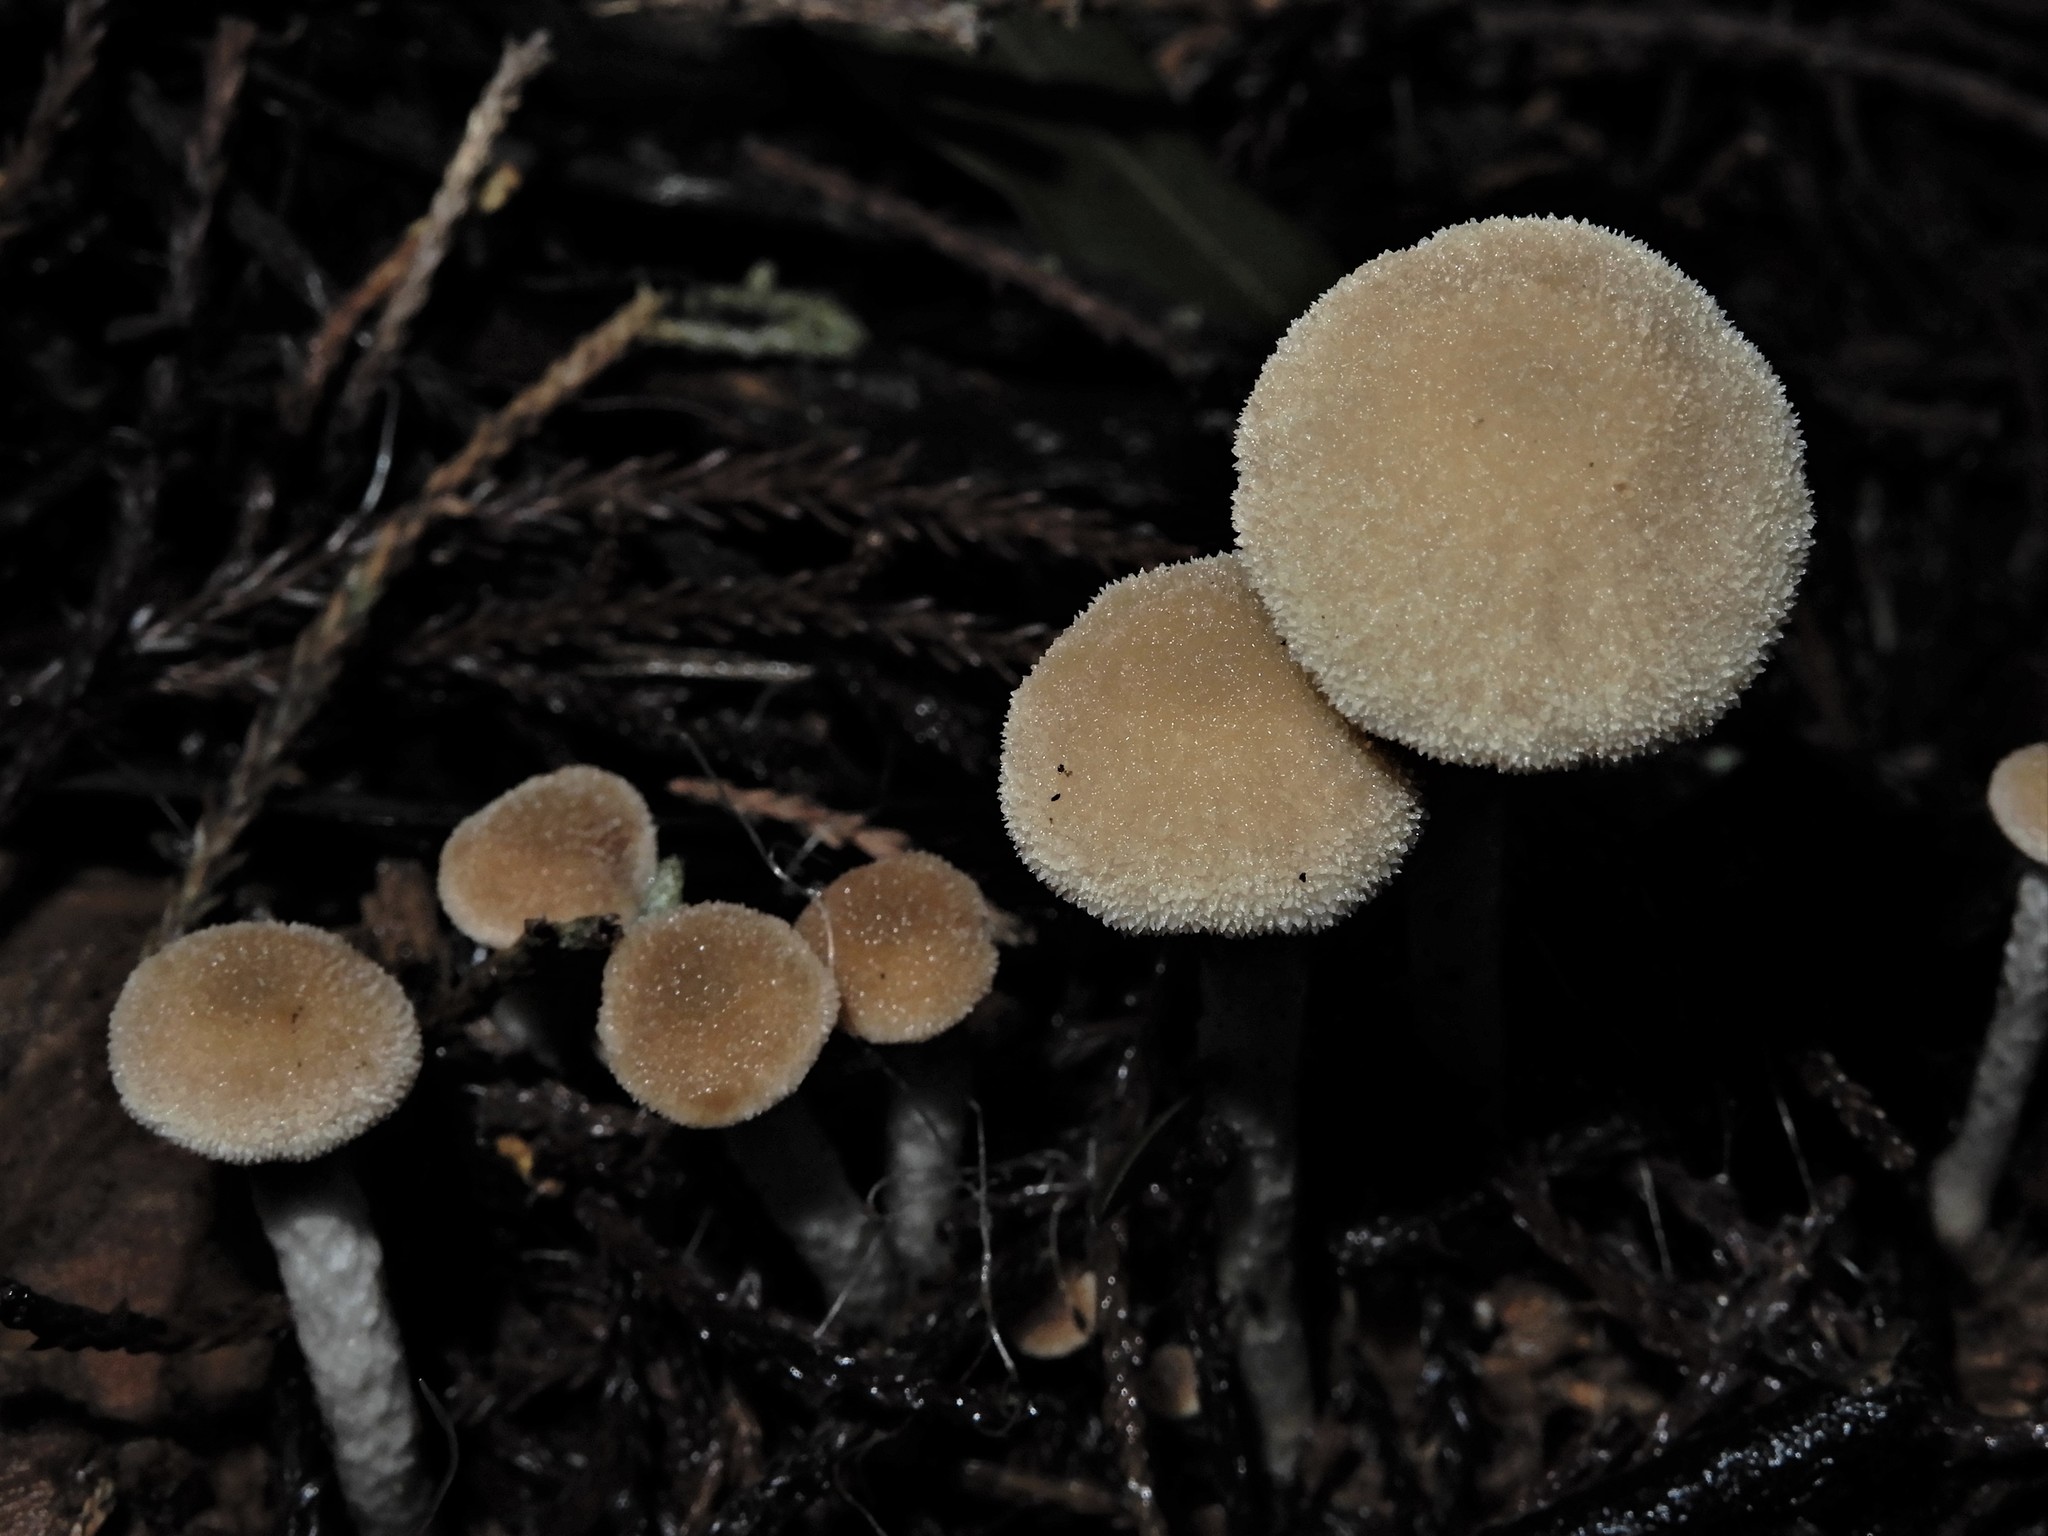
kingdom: Fungi
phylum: Basidiomycota
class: Agaricomycetes
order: Agaricales
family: Bolbitiaceae
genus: Tympanella
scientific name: Tympanella galanthina
